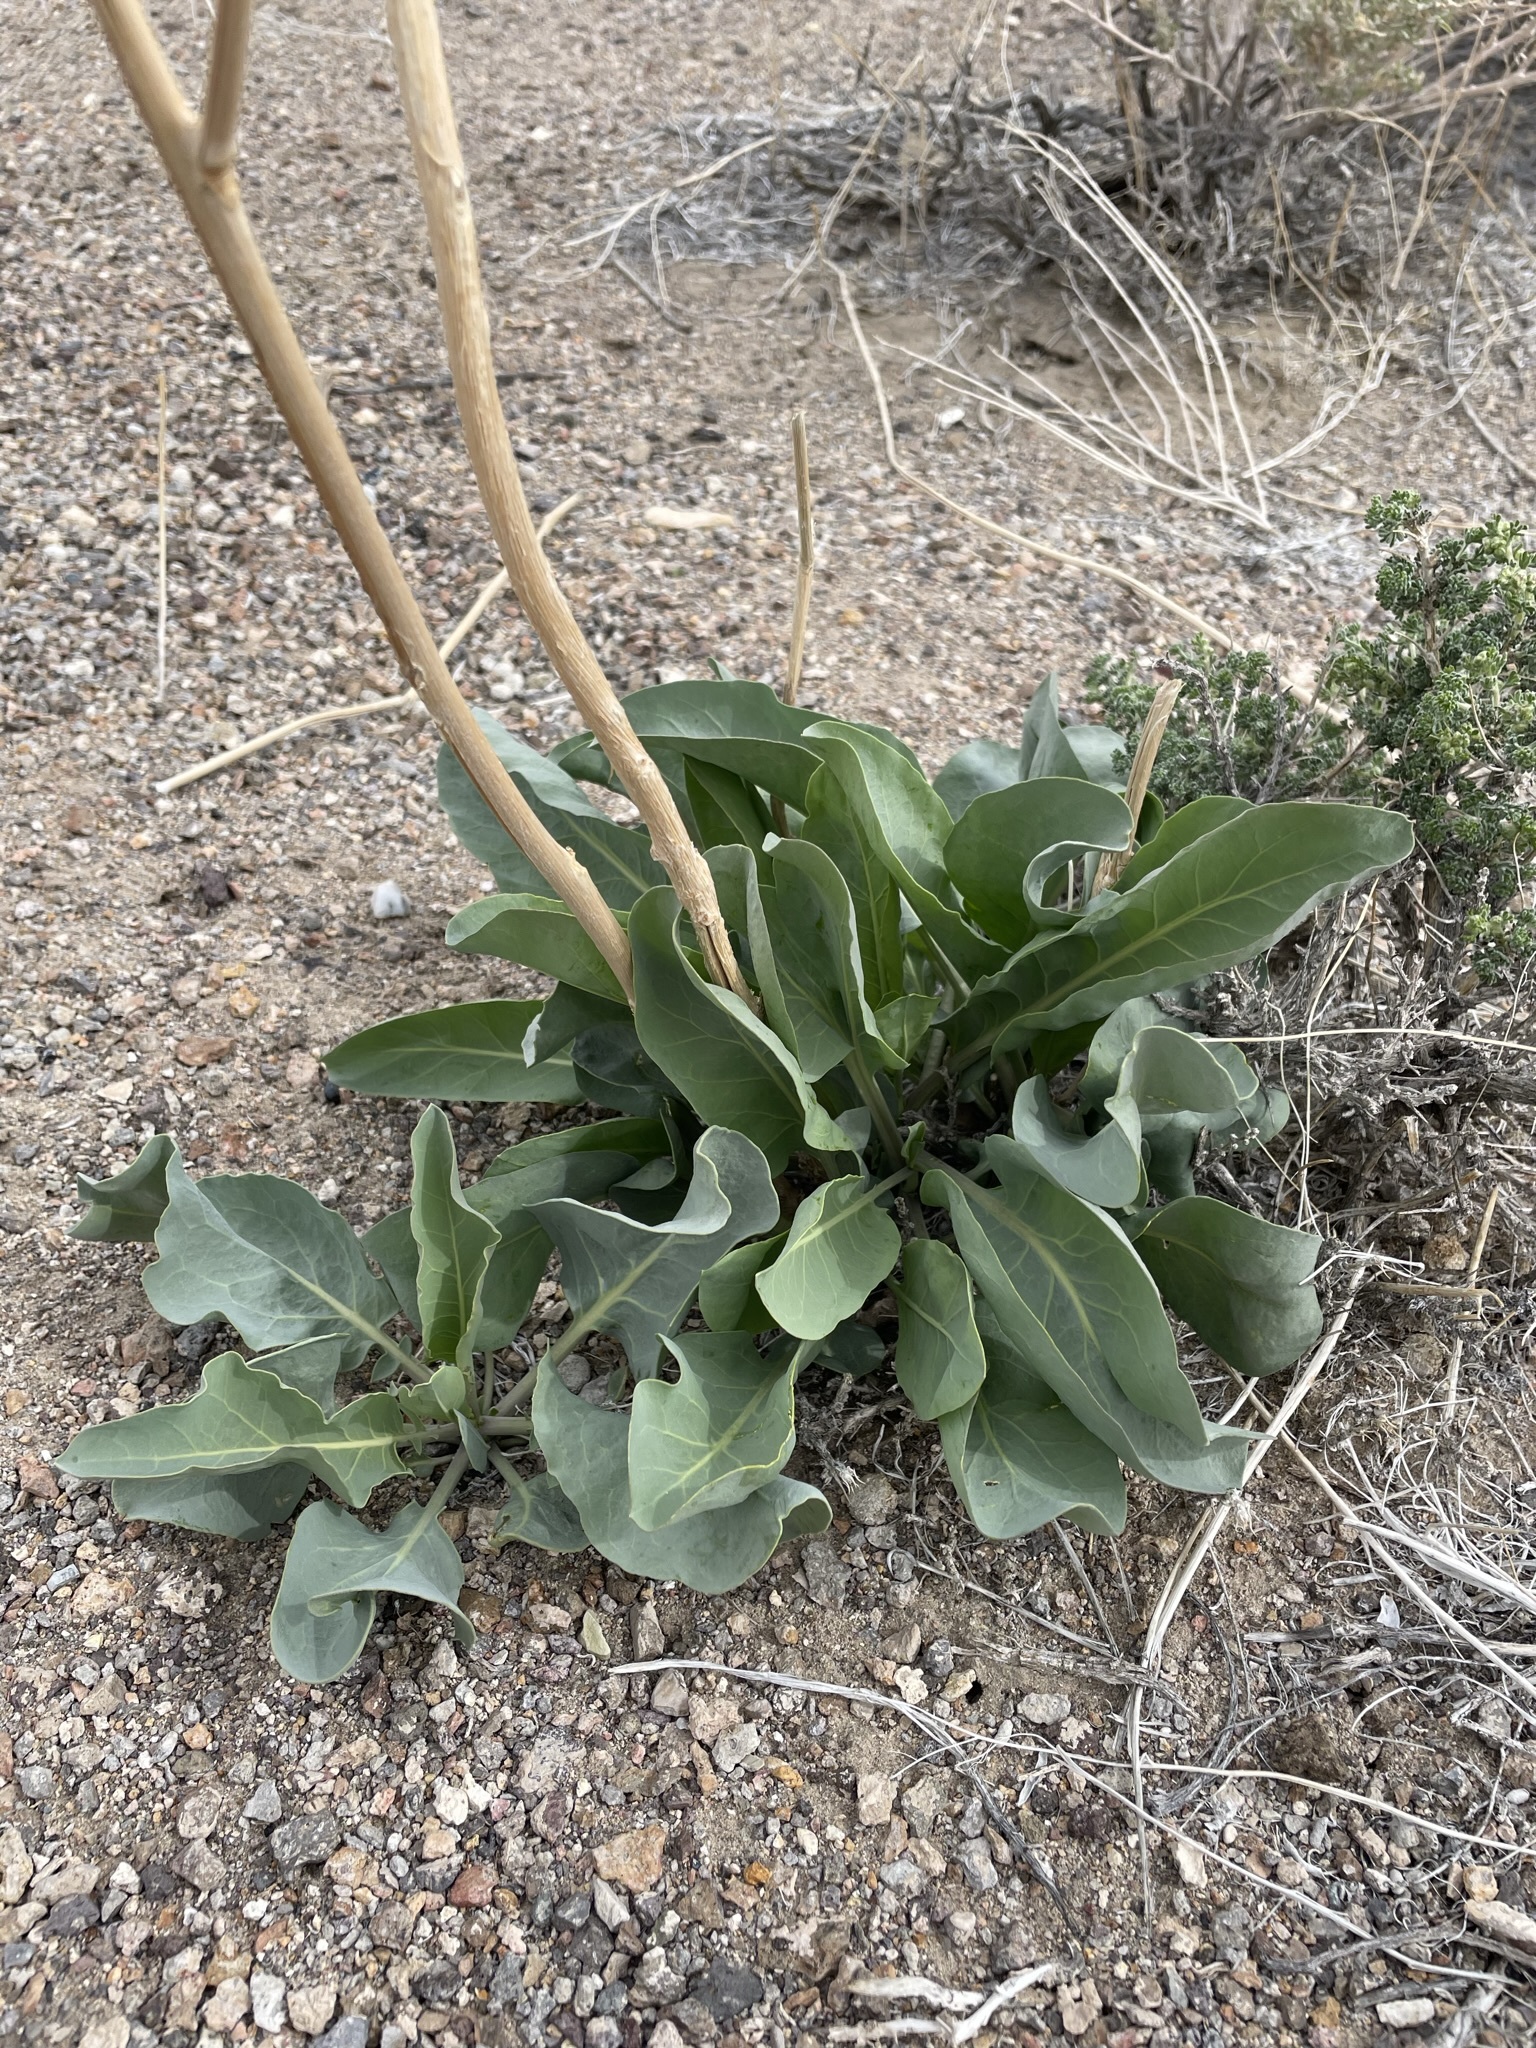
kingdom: Plantae
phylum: Tracheophyta
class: Magnoliopsida
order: Brassicales
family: Brassicaceae
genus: Stanleya
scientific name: Stanleya elata
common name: Panamint prince's plume
